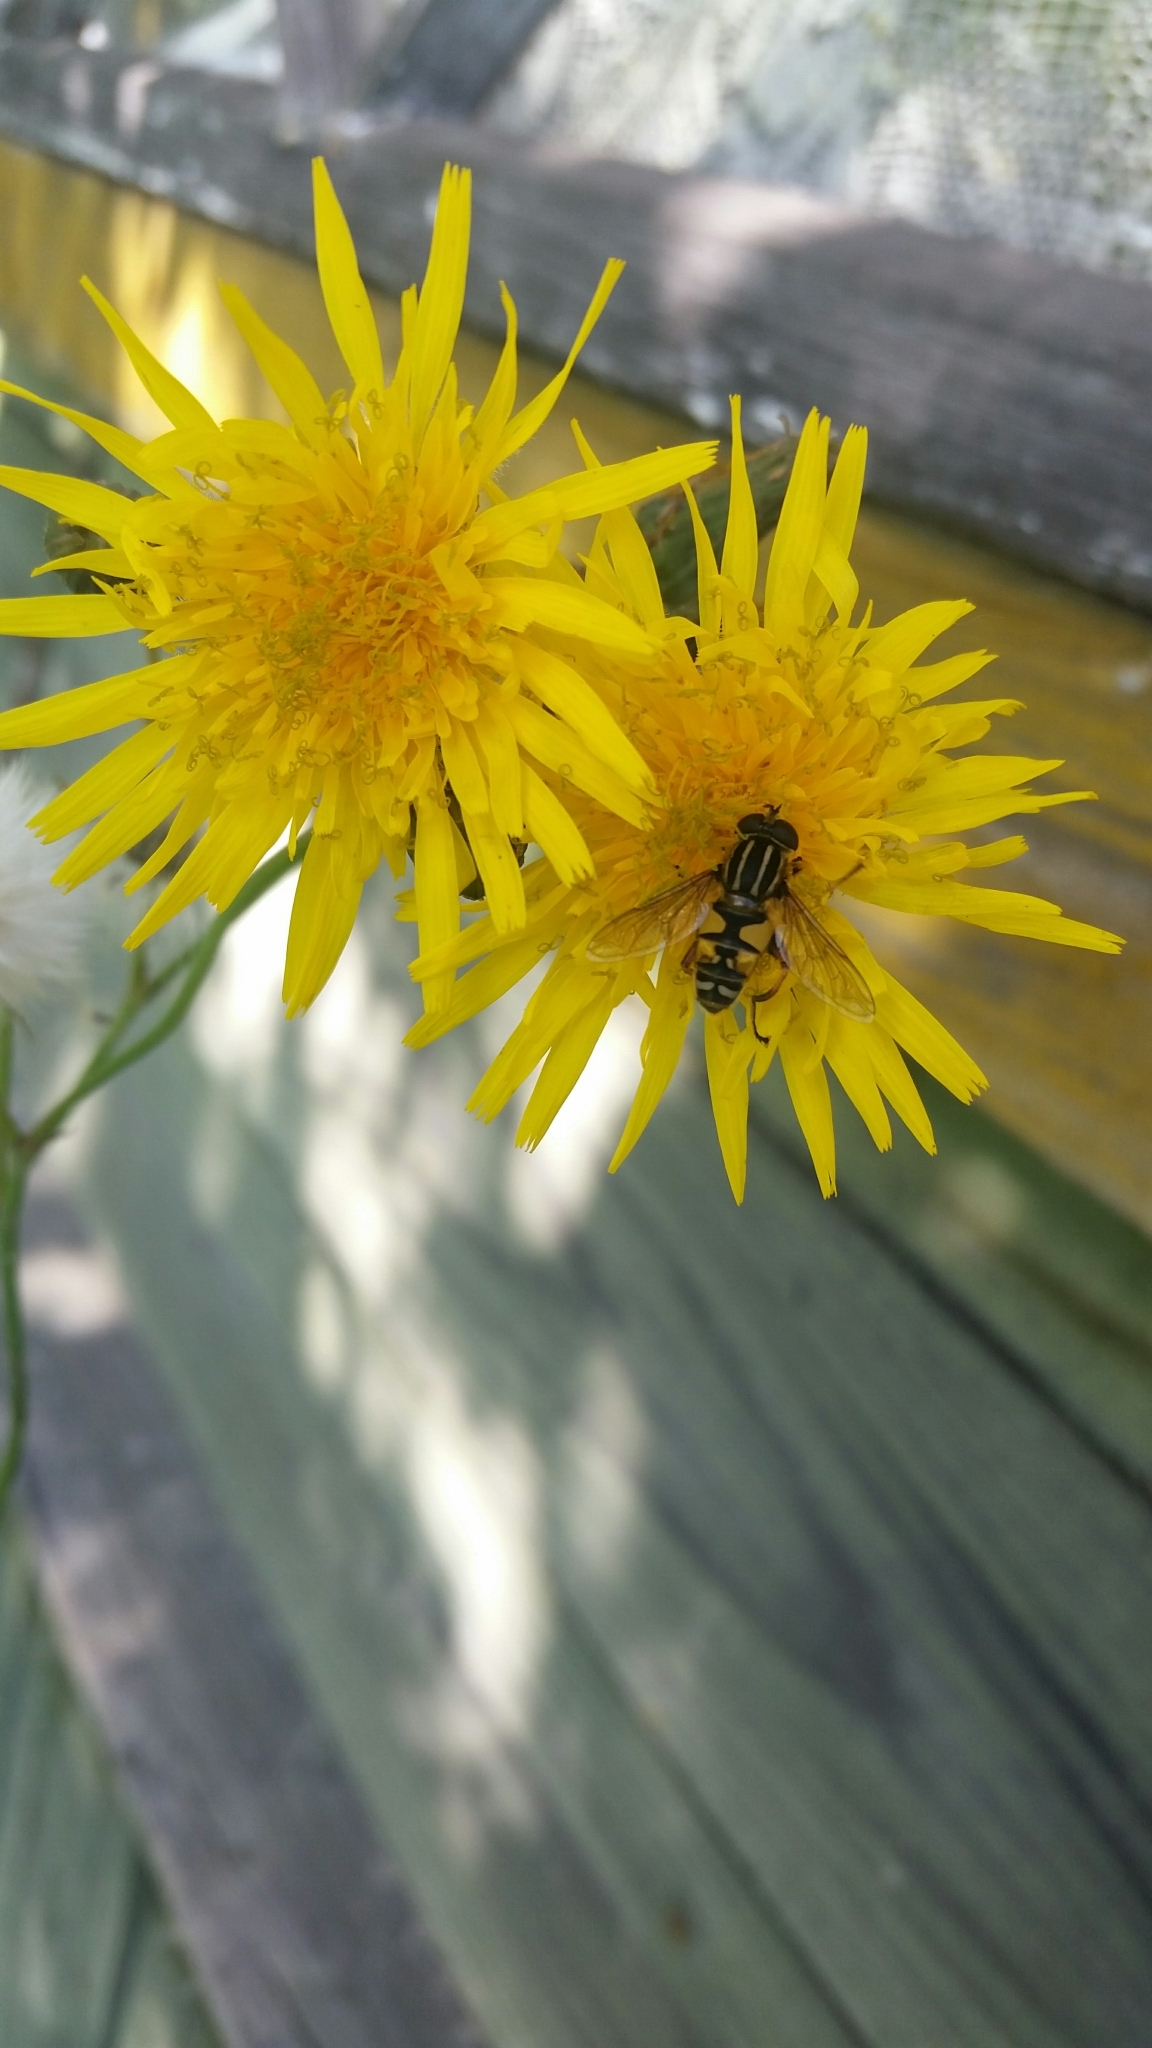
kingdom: Plantae
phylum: Tracheophyta
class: Magnoliopsida
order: Asterales
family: Asteraceae
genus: Sonchus
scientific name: Sonchus arvensis
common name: Perennial sow-thistle
